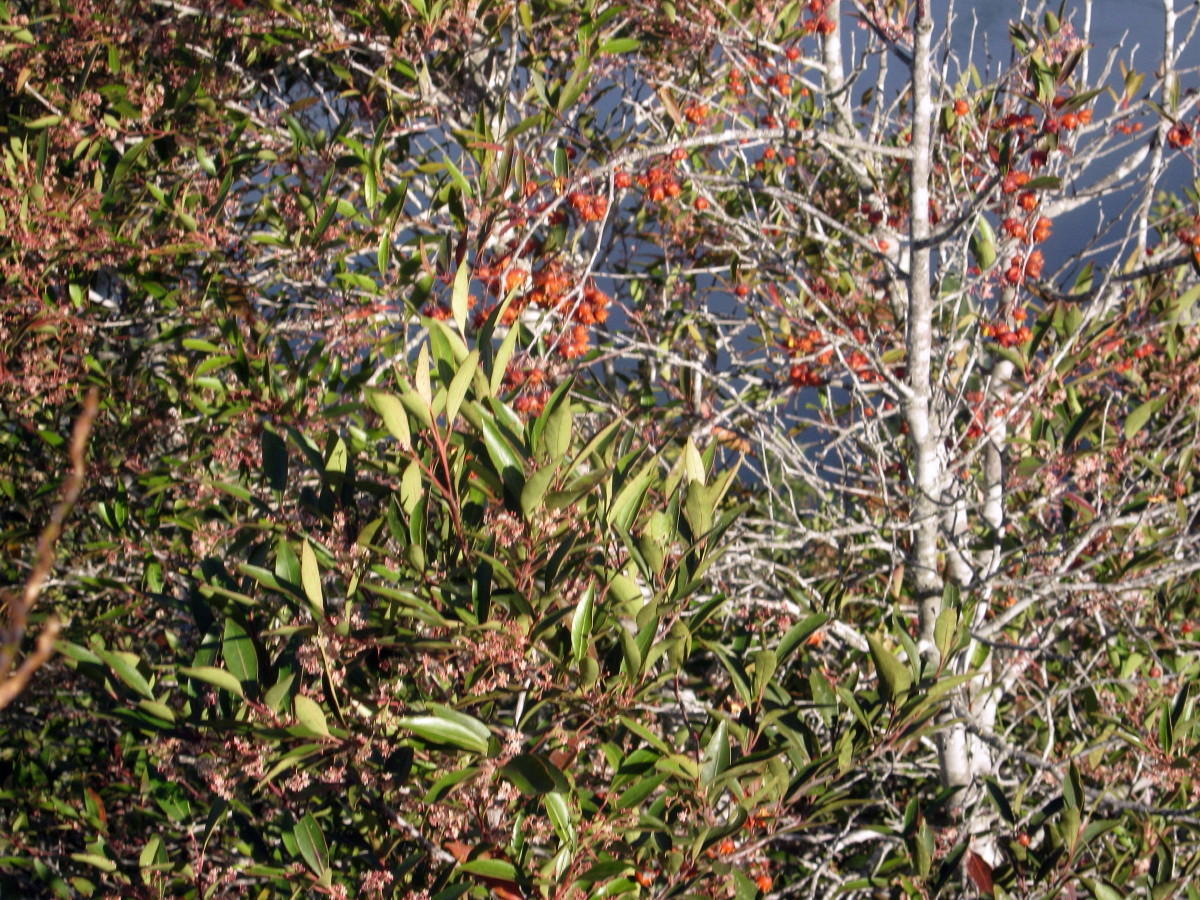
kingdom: Plantae
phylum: Tracheophyta
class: Magnoliopsida
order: Celastrales
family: Celastraceae
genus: Pterocelastrus
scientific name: Pterocelastrus rostratus
